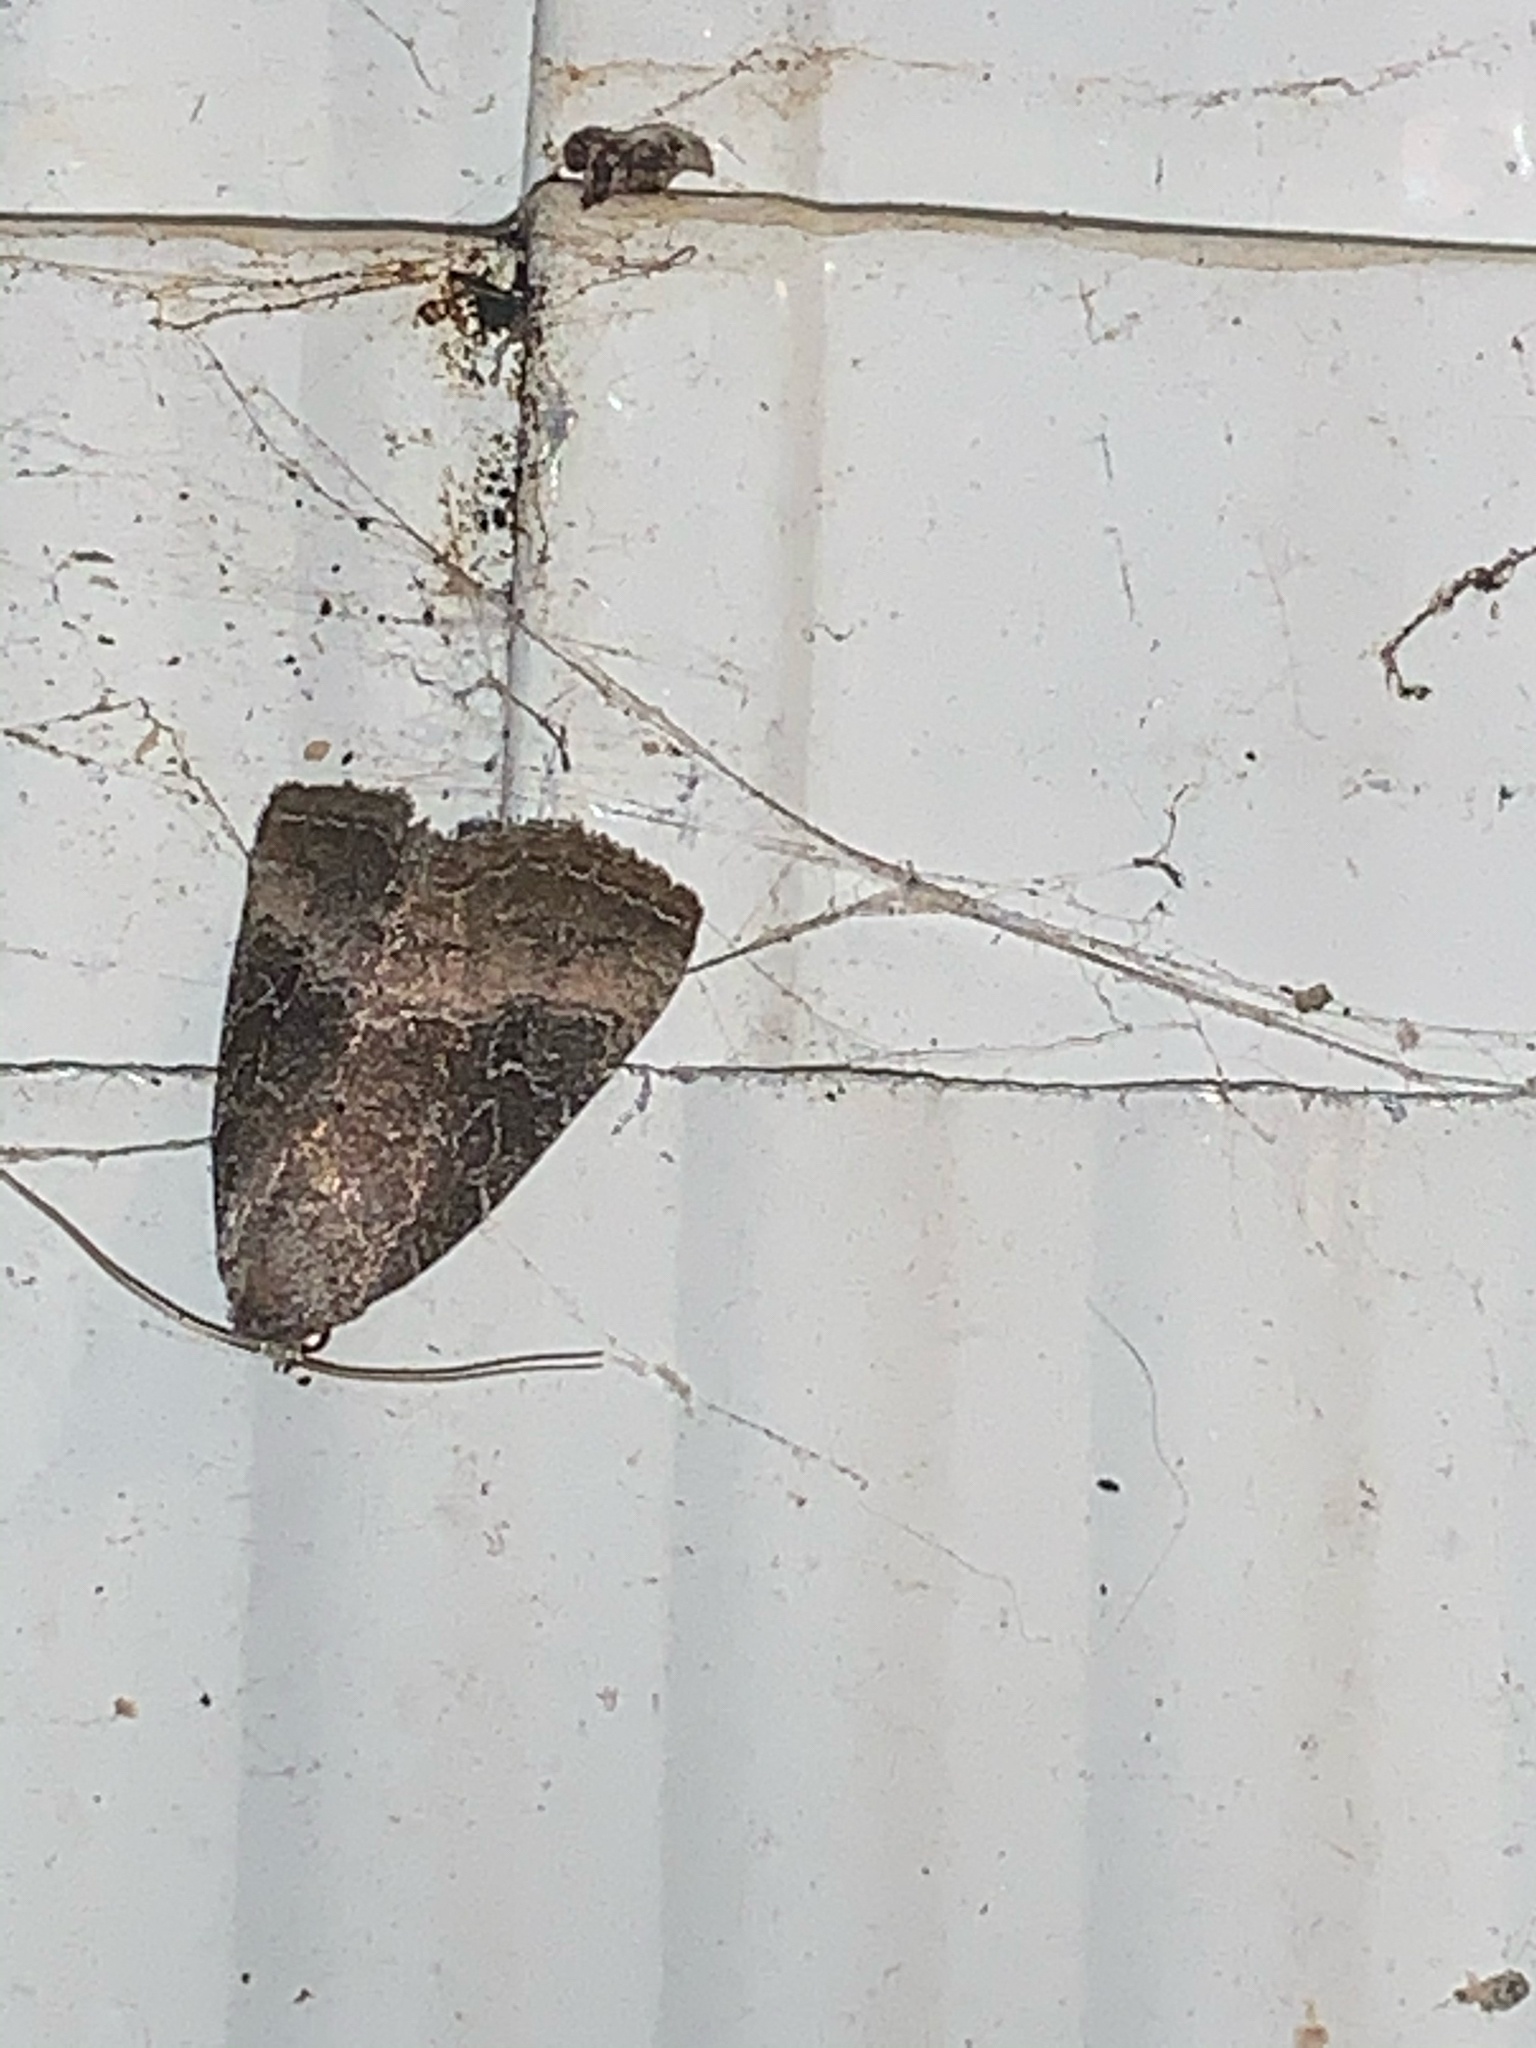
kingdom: Animalia
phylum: Arthropoda
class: Insecta
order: Lepidoptera
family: Noctuidae
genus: Ogdoconta
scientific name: Ogdoconta cinereola
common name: Common pinkband
